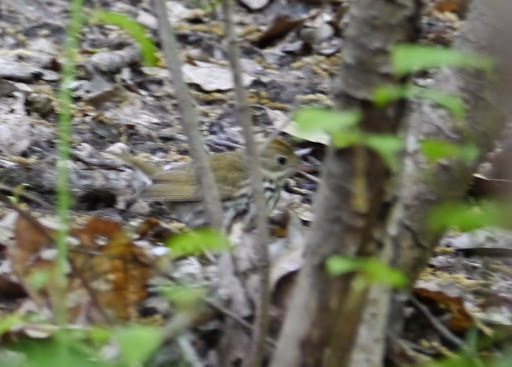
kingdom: Animalia
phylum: Chordata
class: Aves
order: Passeriformes
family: Parulidae
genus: Seiurus
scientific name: Seiurus aurocapilla
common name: Ovenbird
